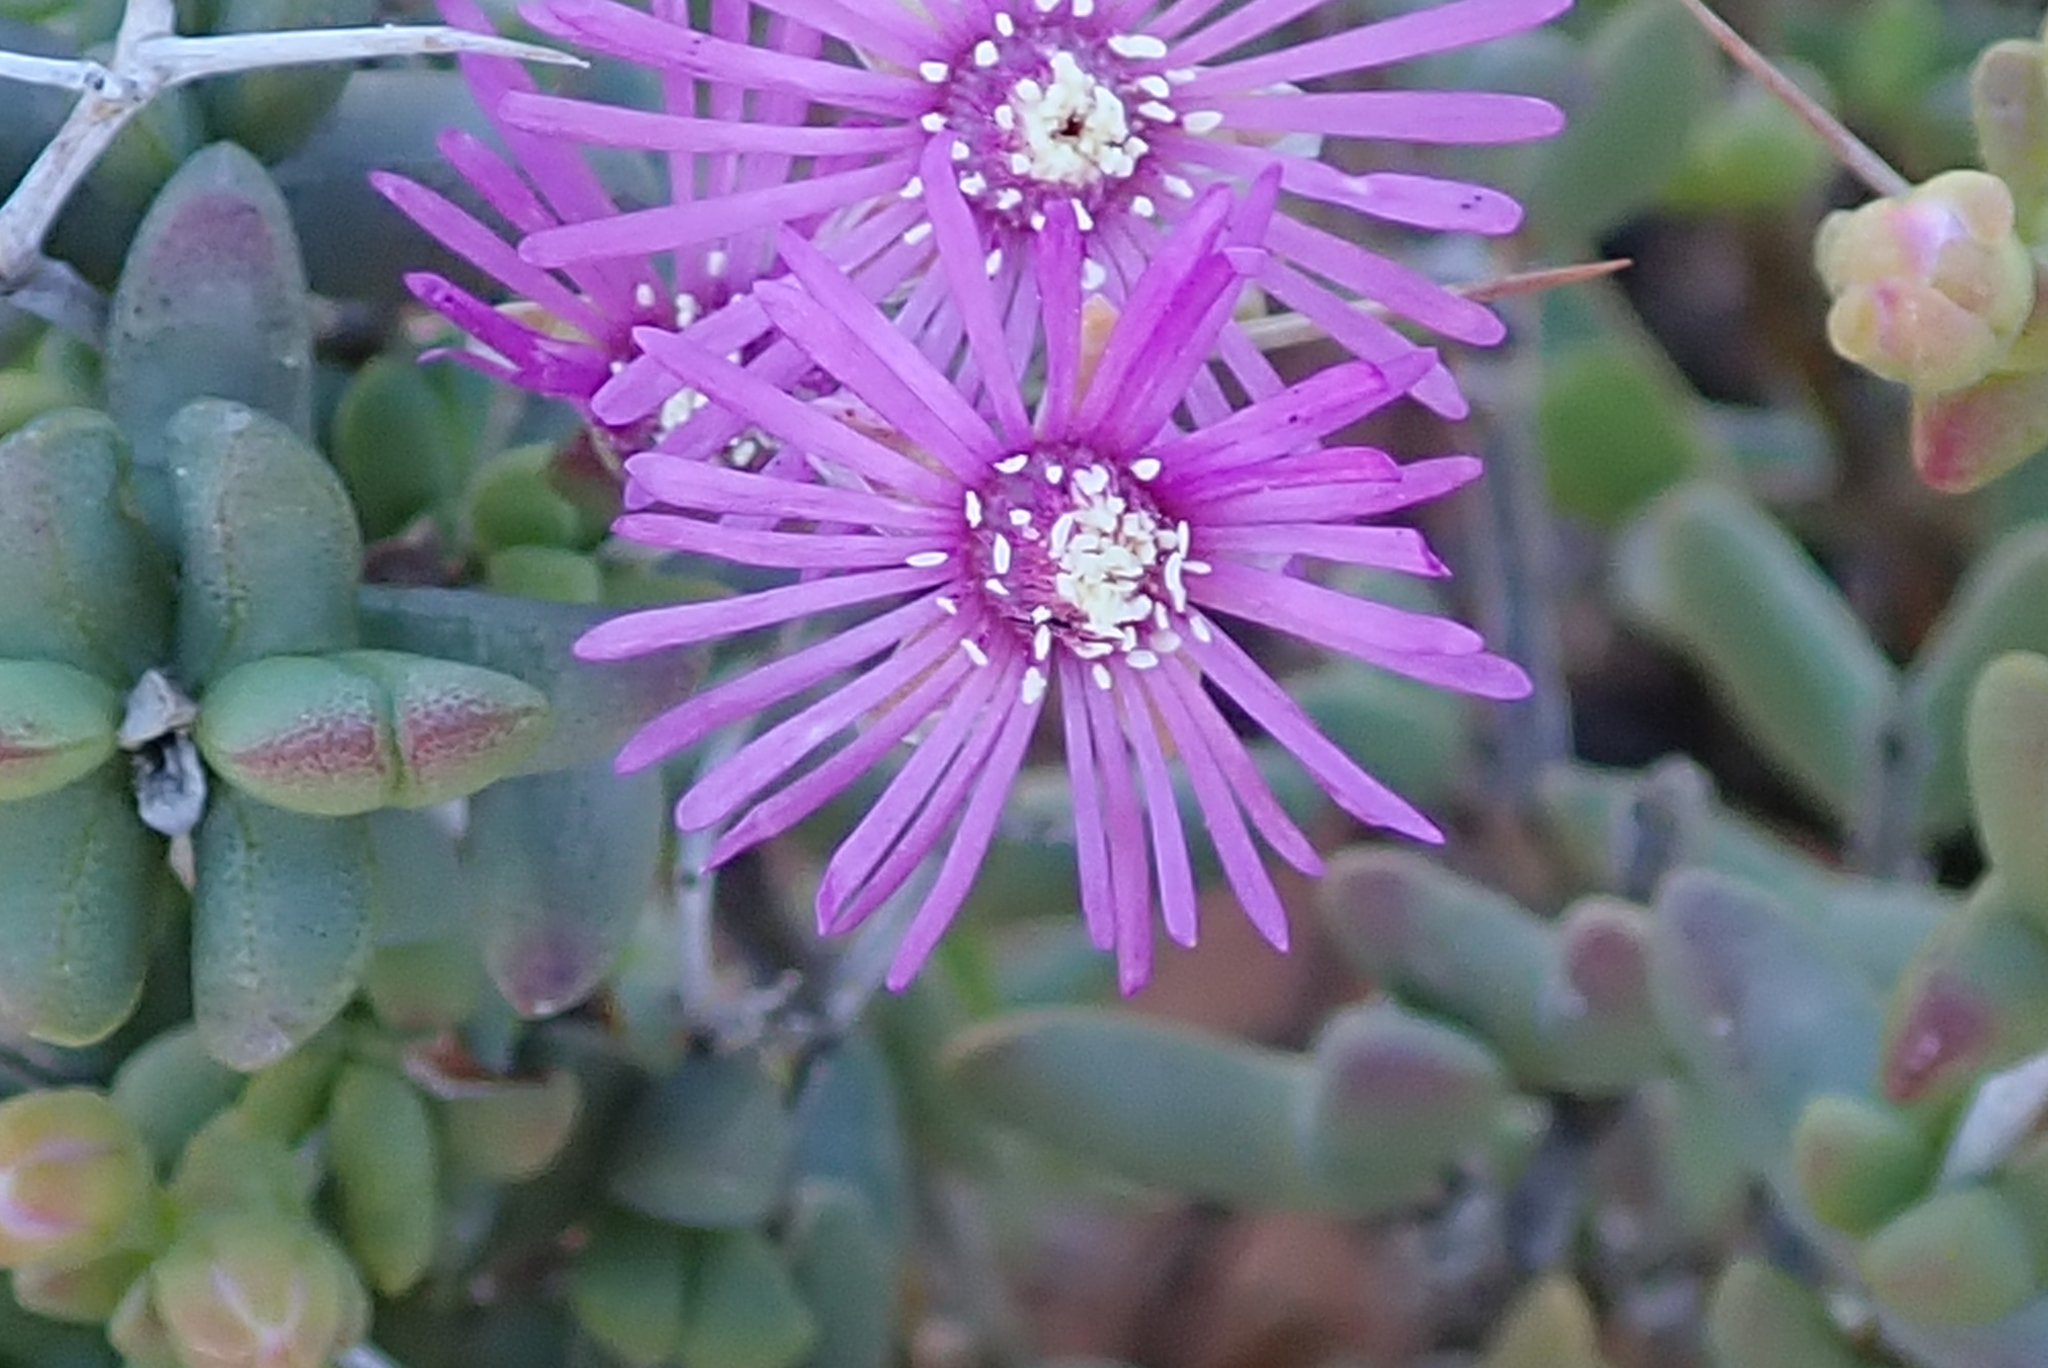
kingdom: Plantae
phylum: Tracheophyta
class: Magnoliopsida
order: Caryophyllales
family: Aizoaceae
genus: Ruschia
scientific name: Ruschia cradockensis
